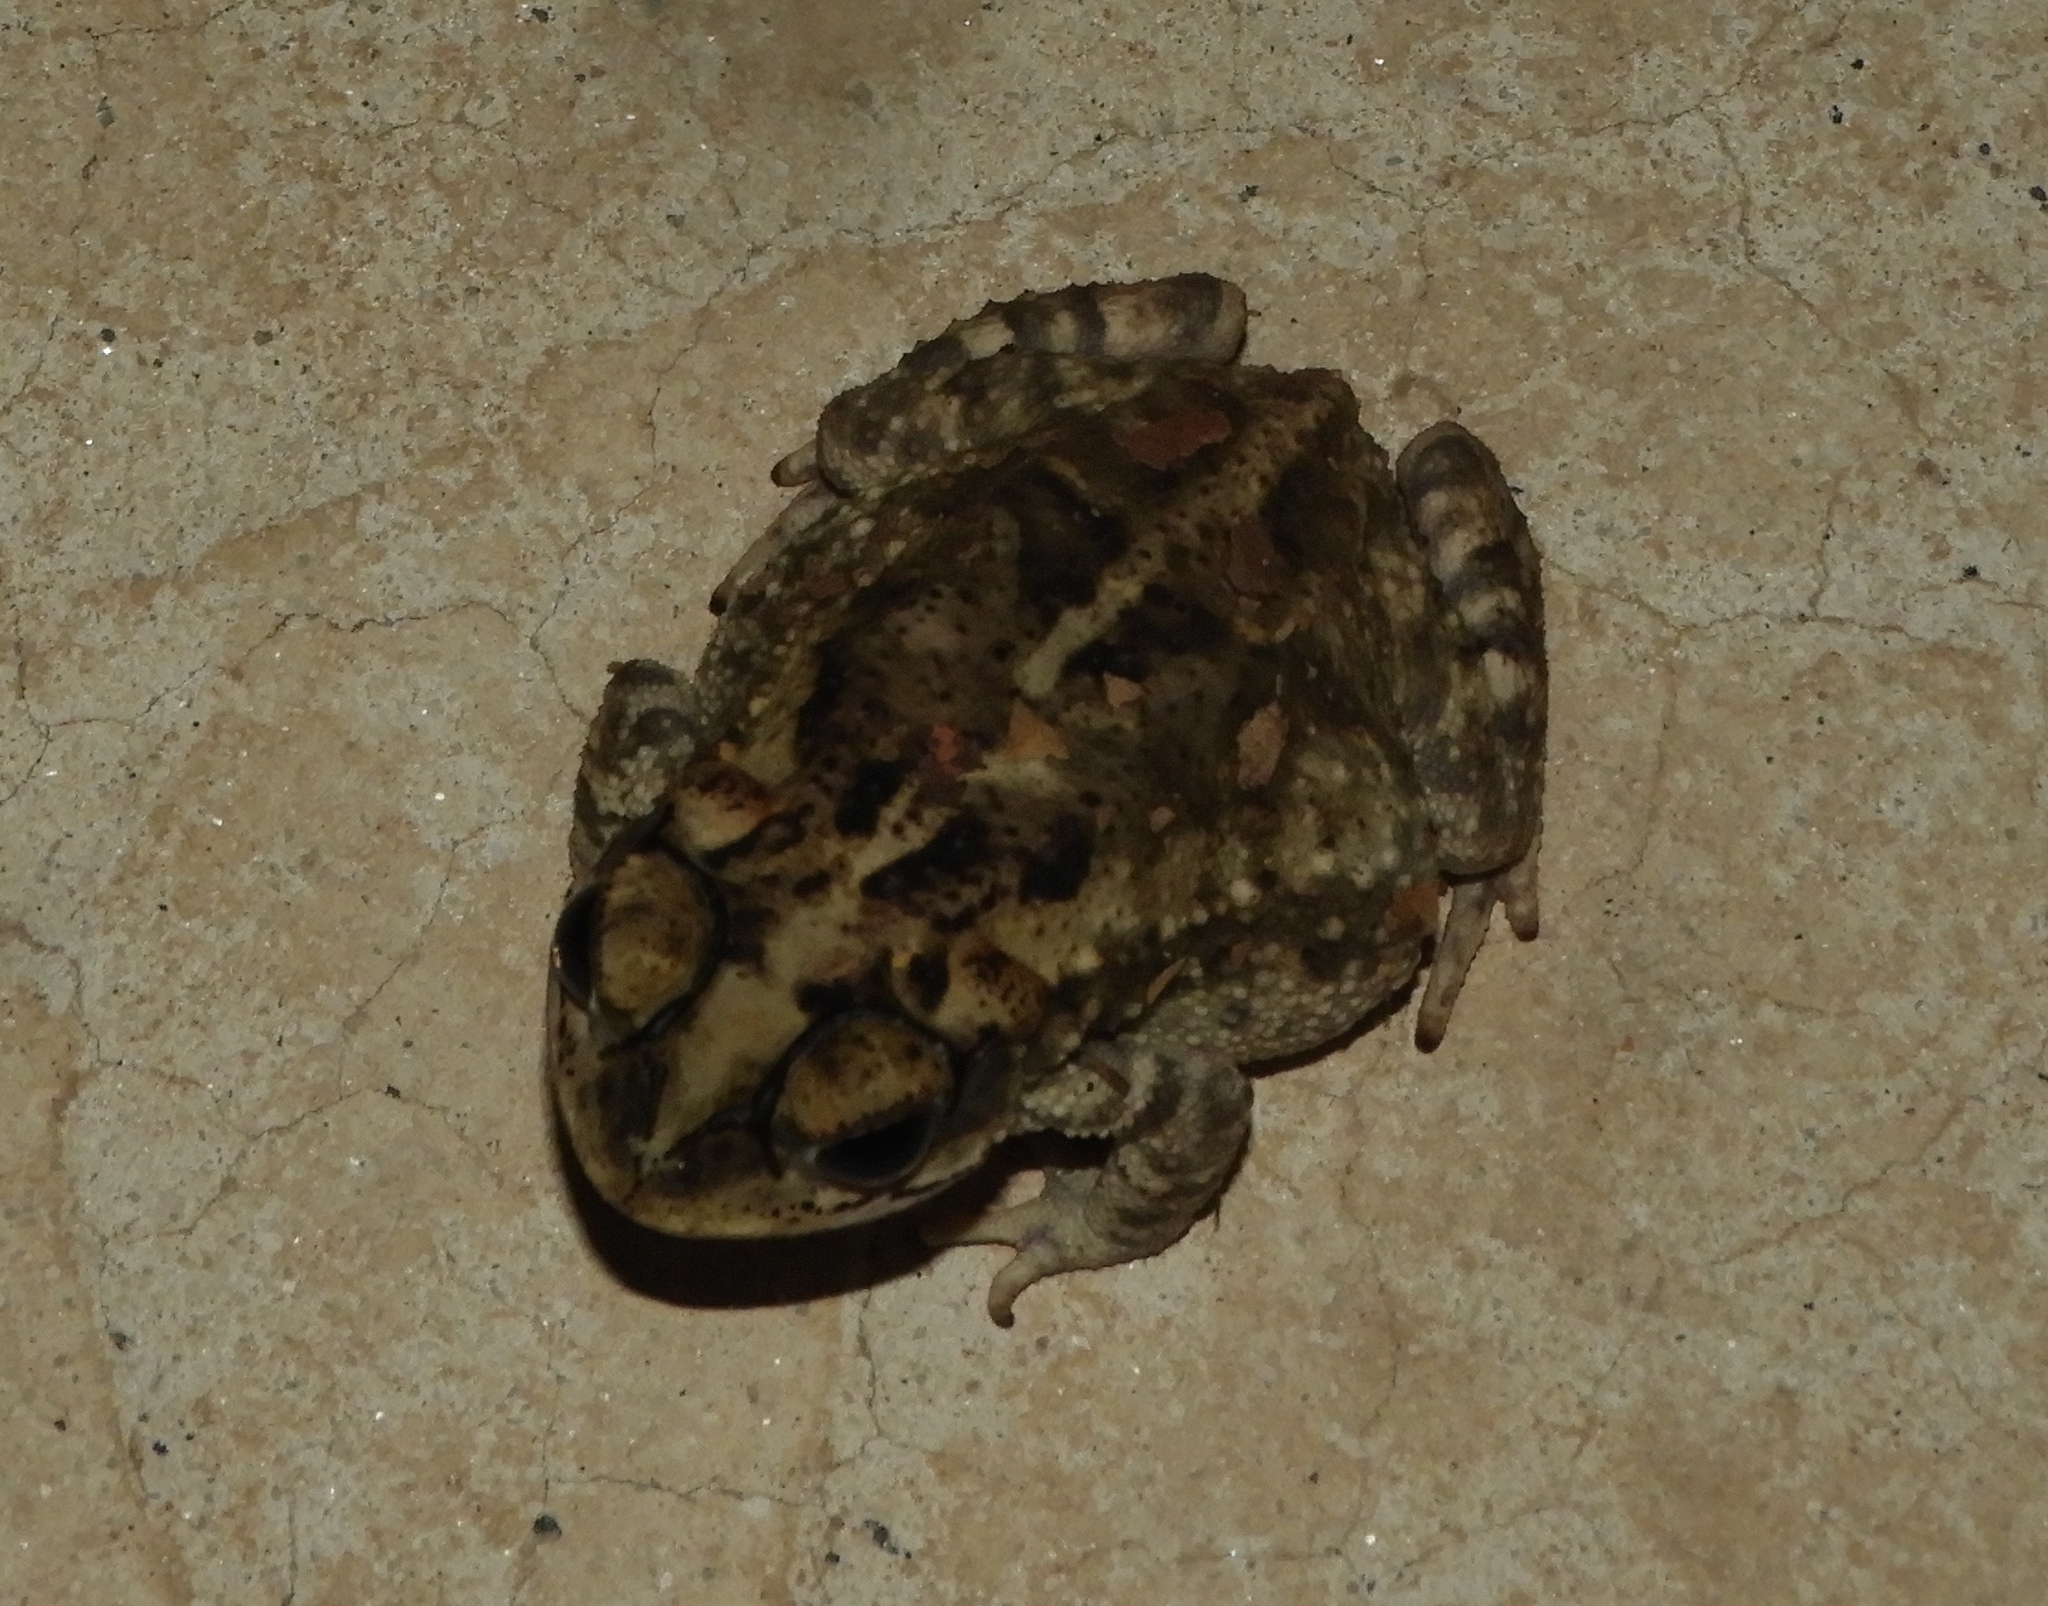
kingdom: Animalia
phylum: Chordata
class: Amphibia
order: Anura
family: Bufonidae
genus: Incilius
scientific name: Incilius mazatlanensis
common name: Sinaloa toad
